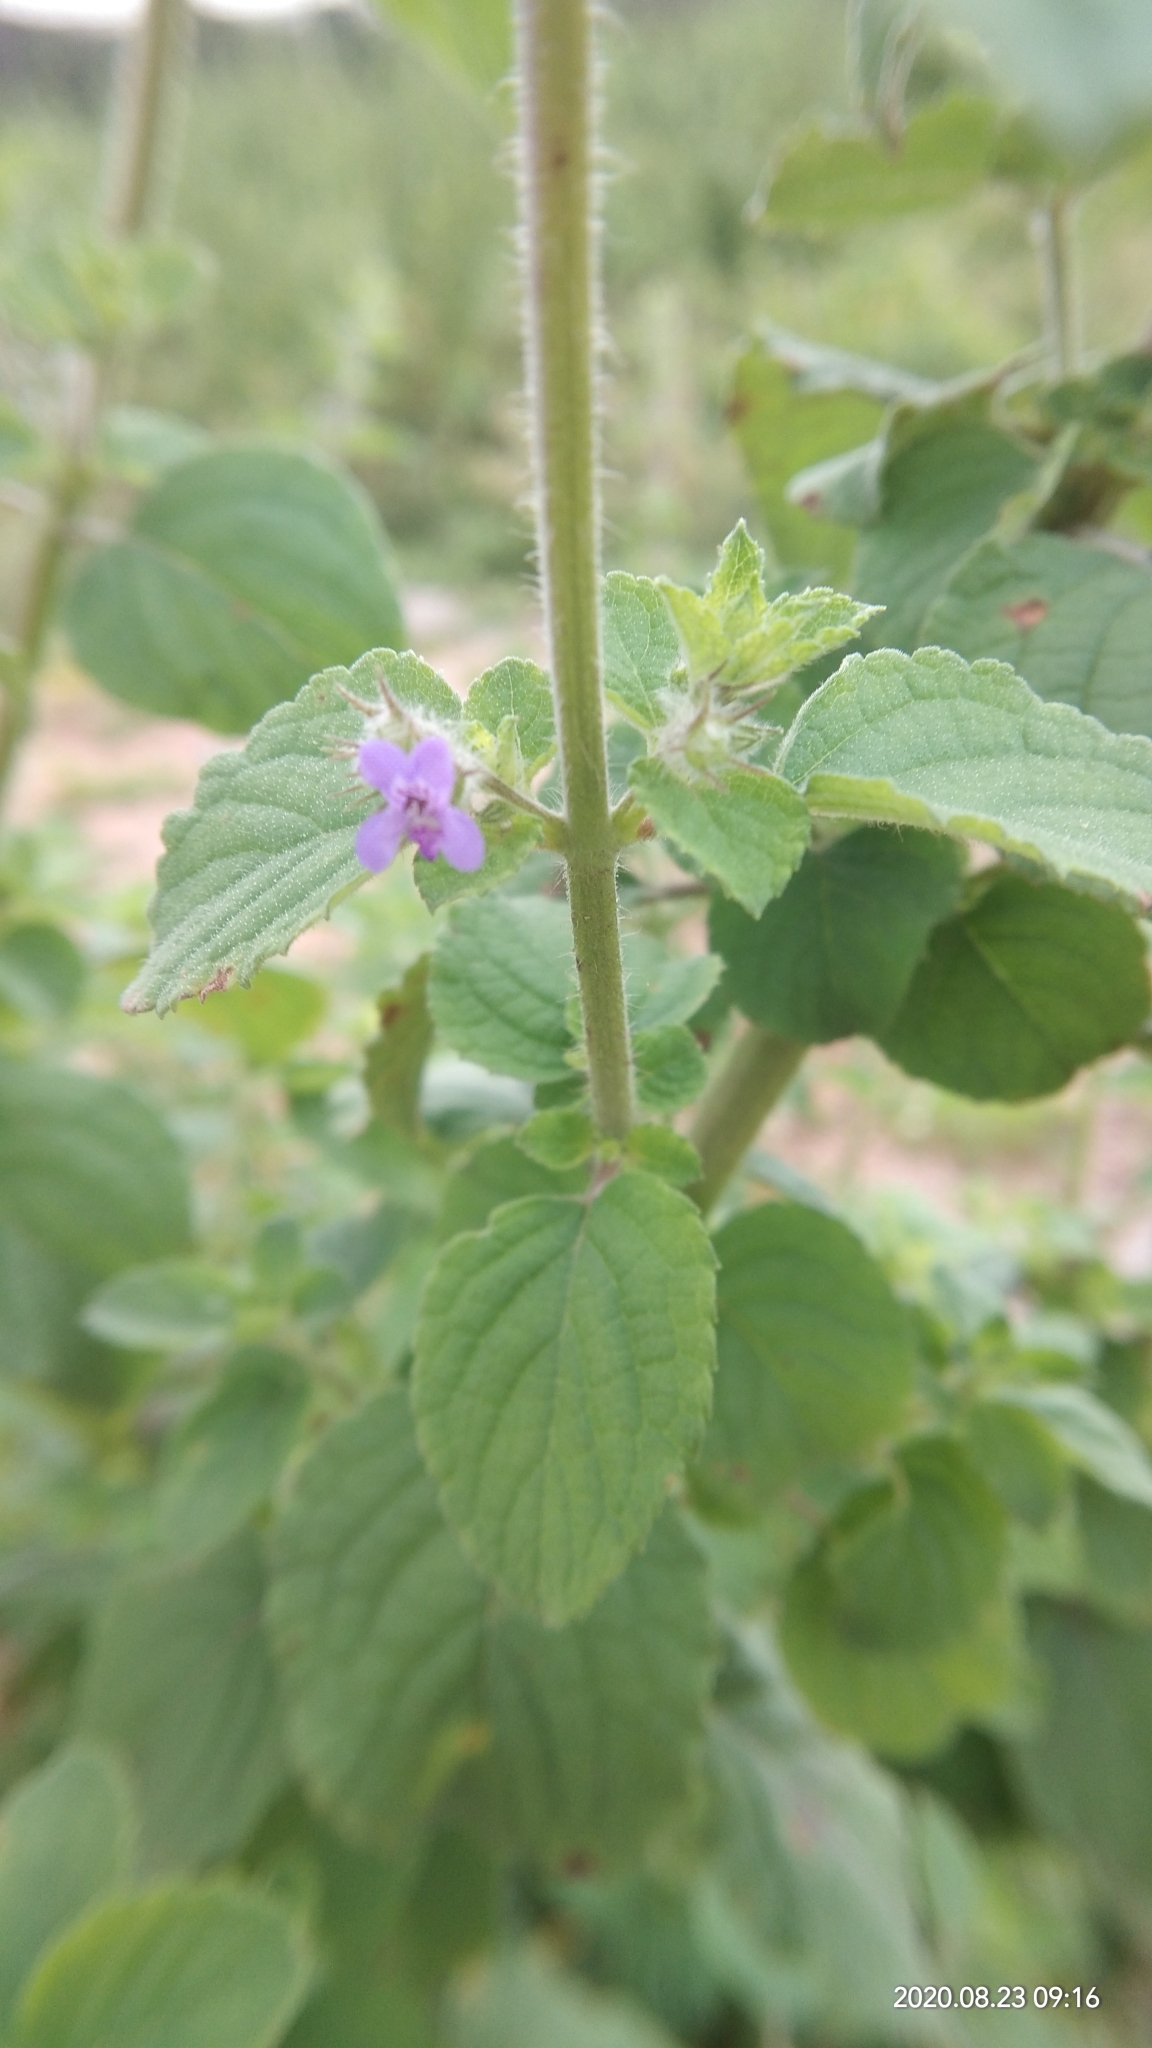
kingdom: Plantae
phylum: Tracheophyta
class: Magnoliopsida
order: Lamiales
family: Lamiaceae
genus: Mesosphaerum
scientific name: Mesosphaerum suaveolens
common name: Pignut
